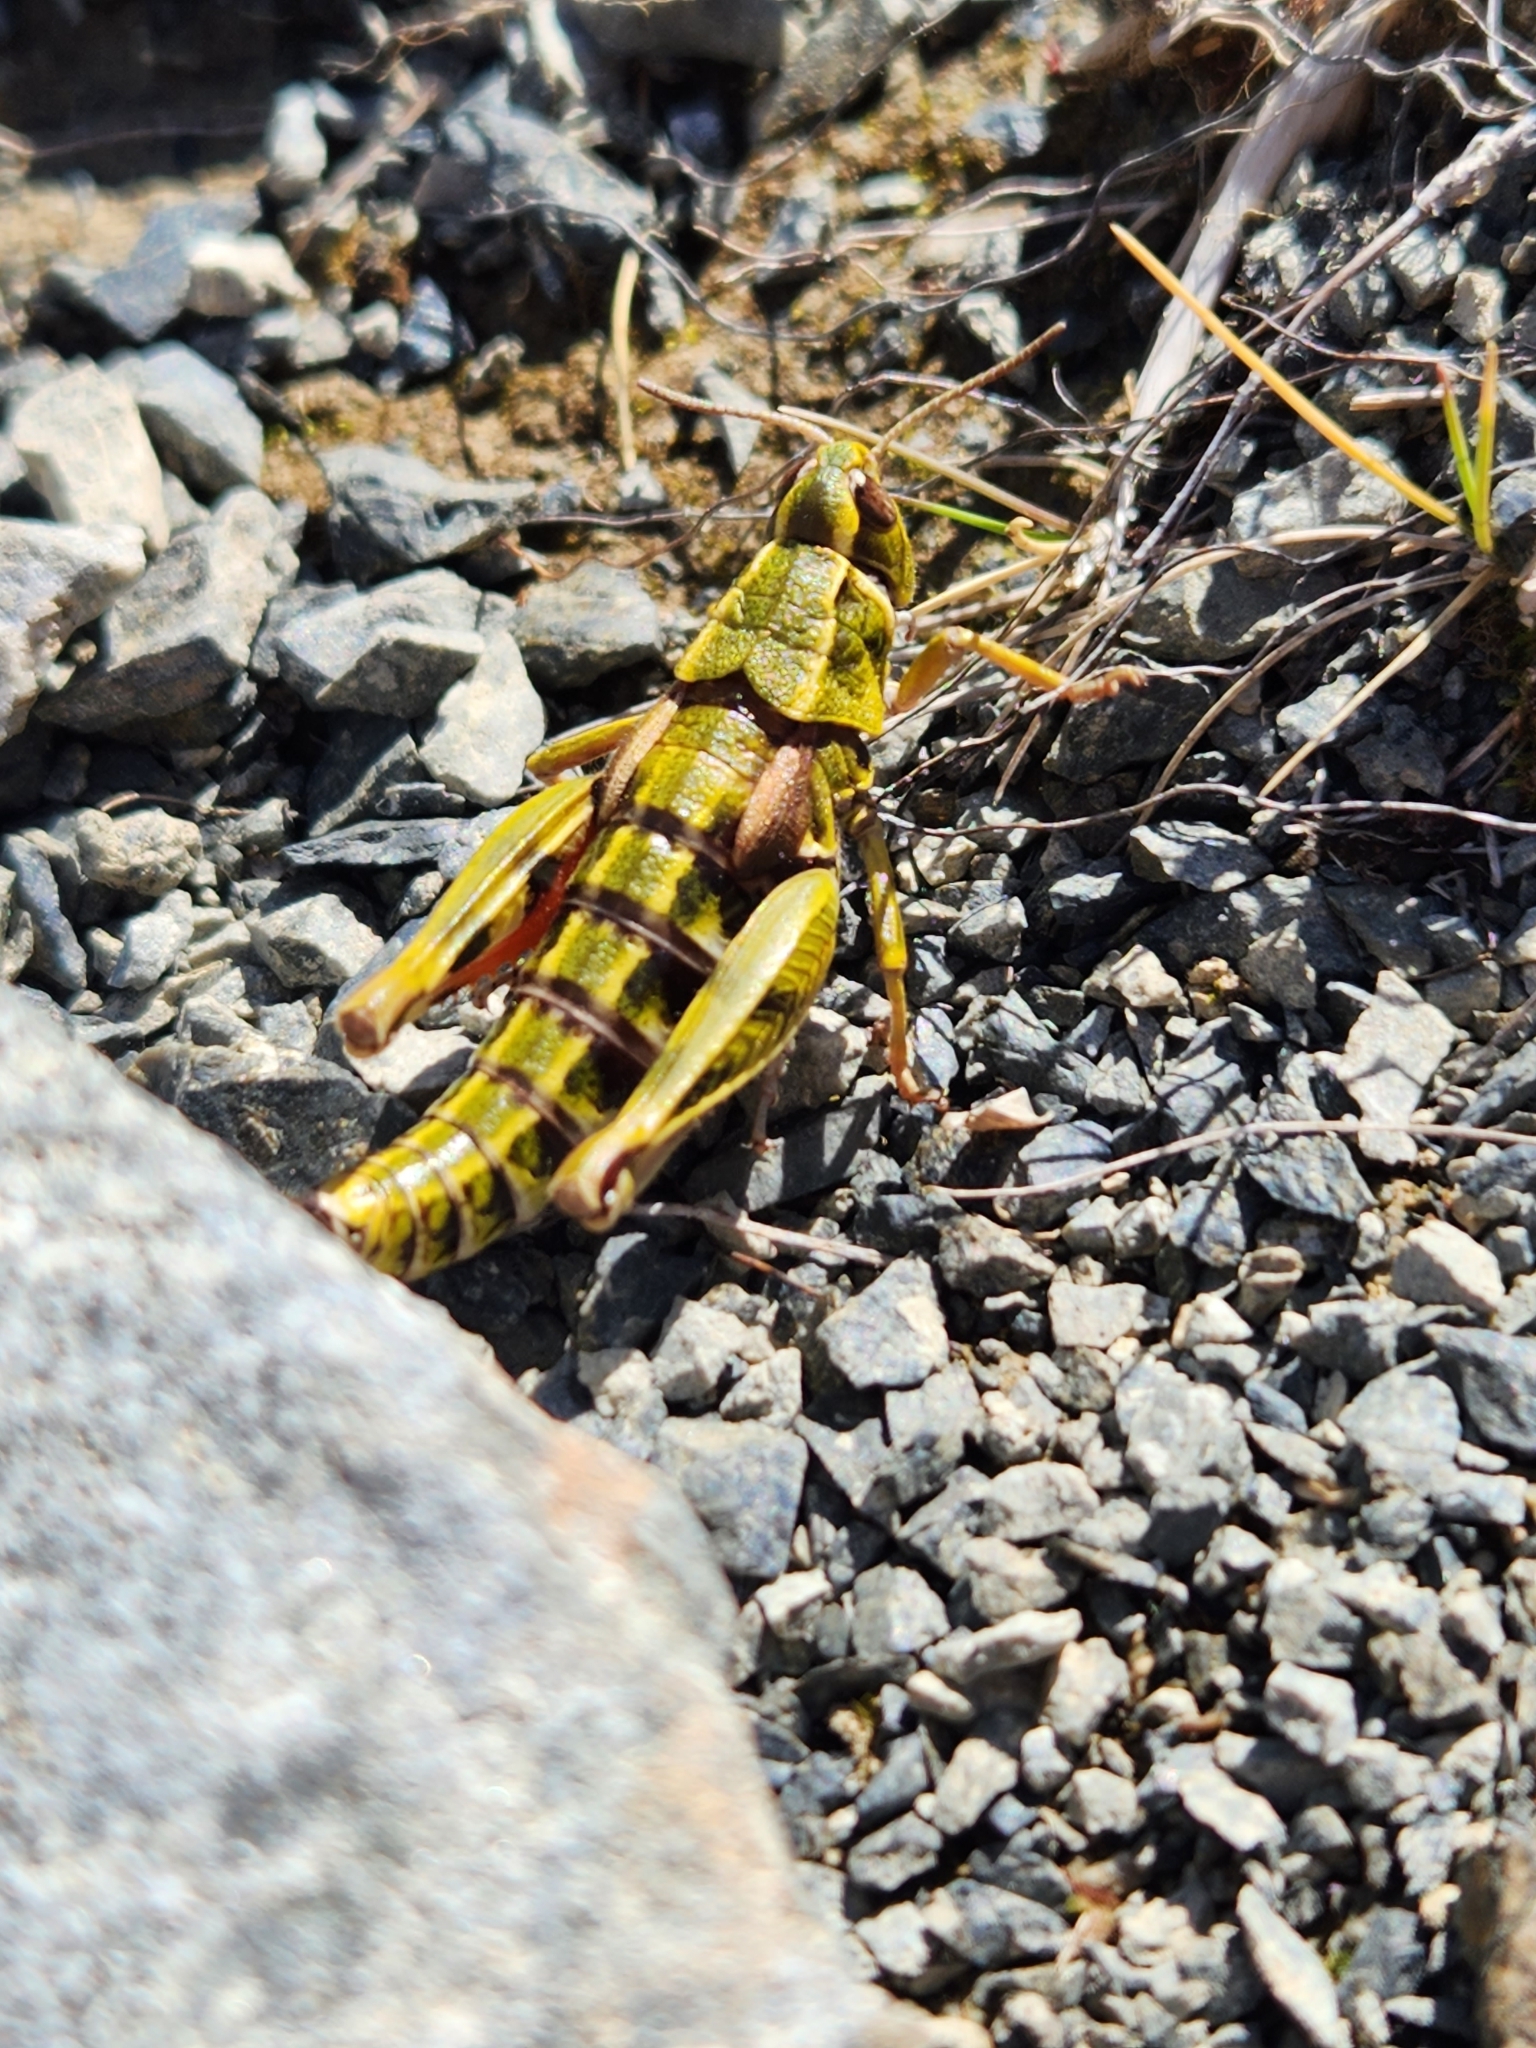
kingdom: Animalia
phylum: Arthropoda
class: Insecta
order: Orthoptera
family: Acrididae
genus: Sigaus
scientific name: Sigaus australis
